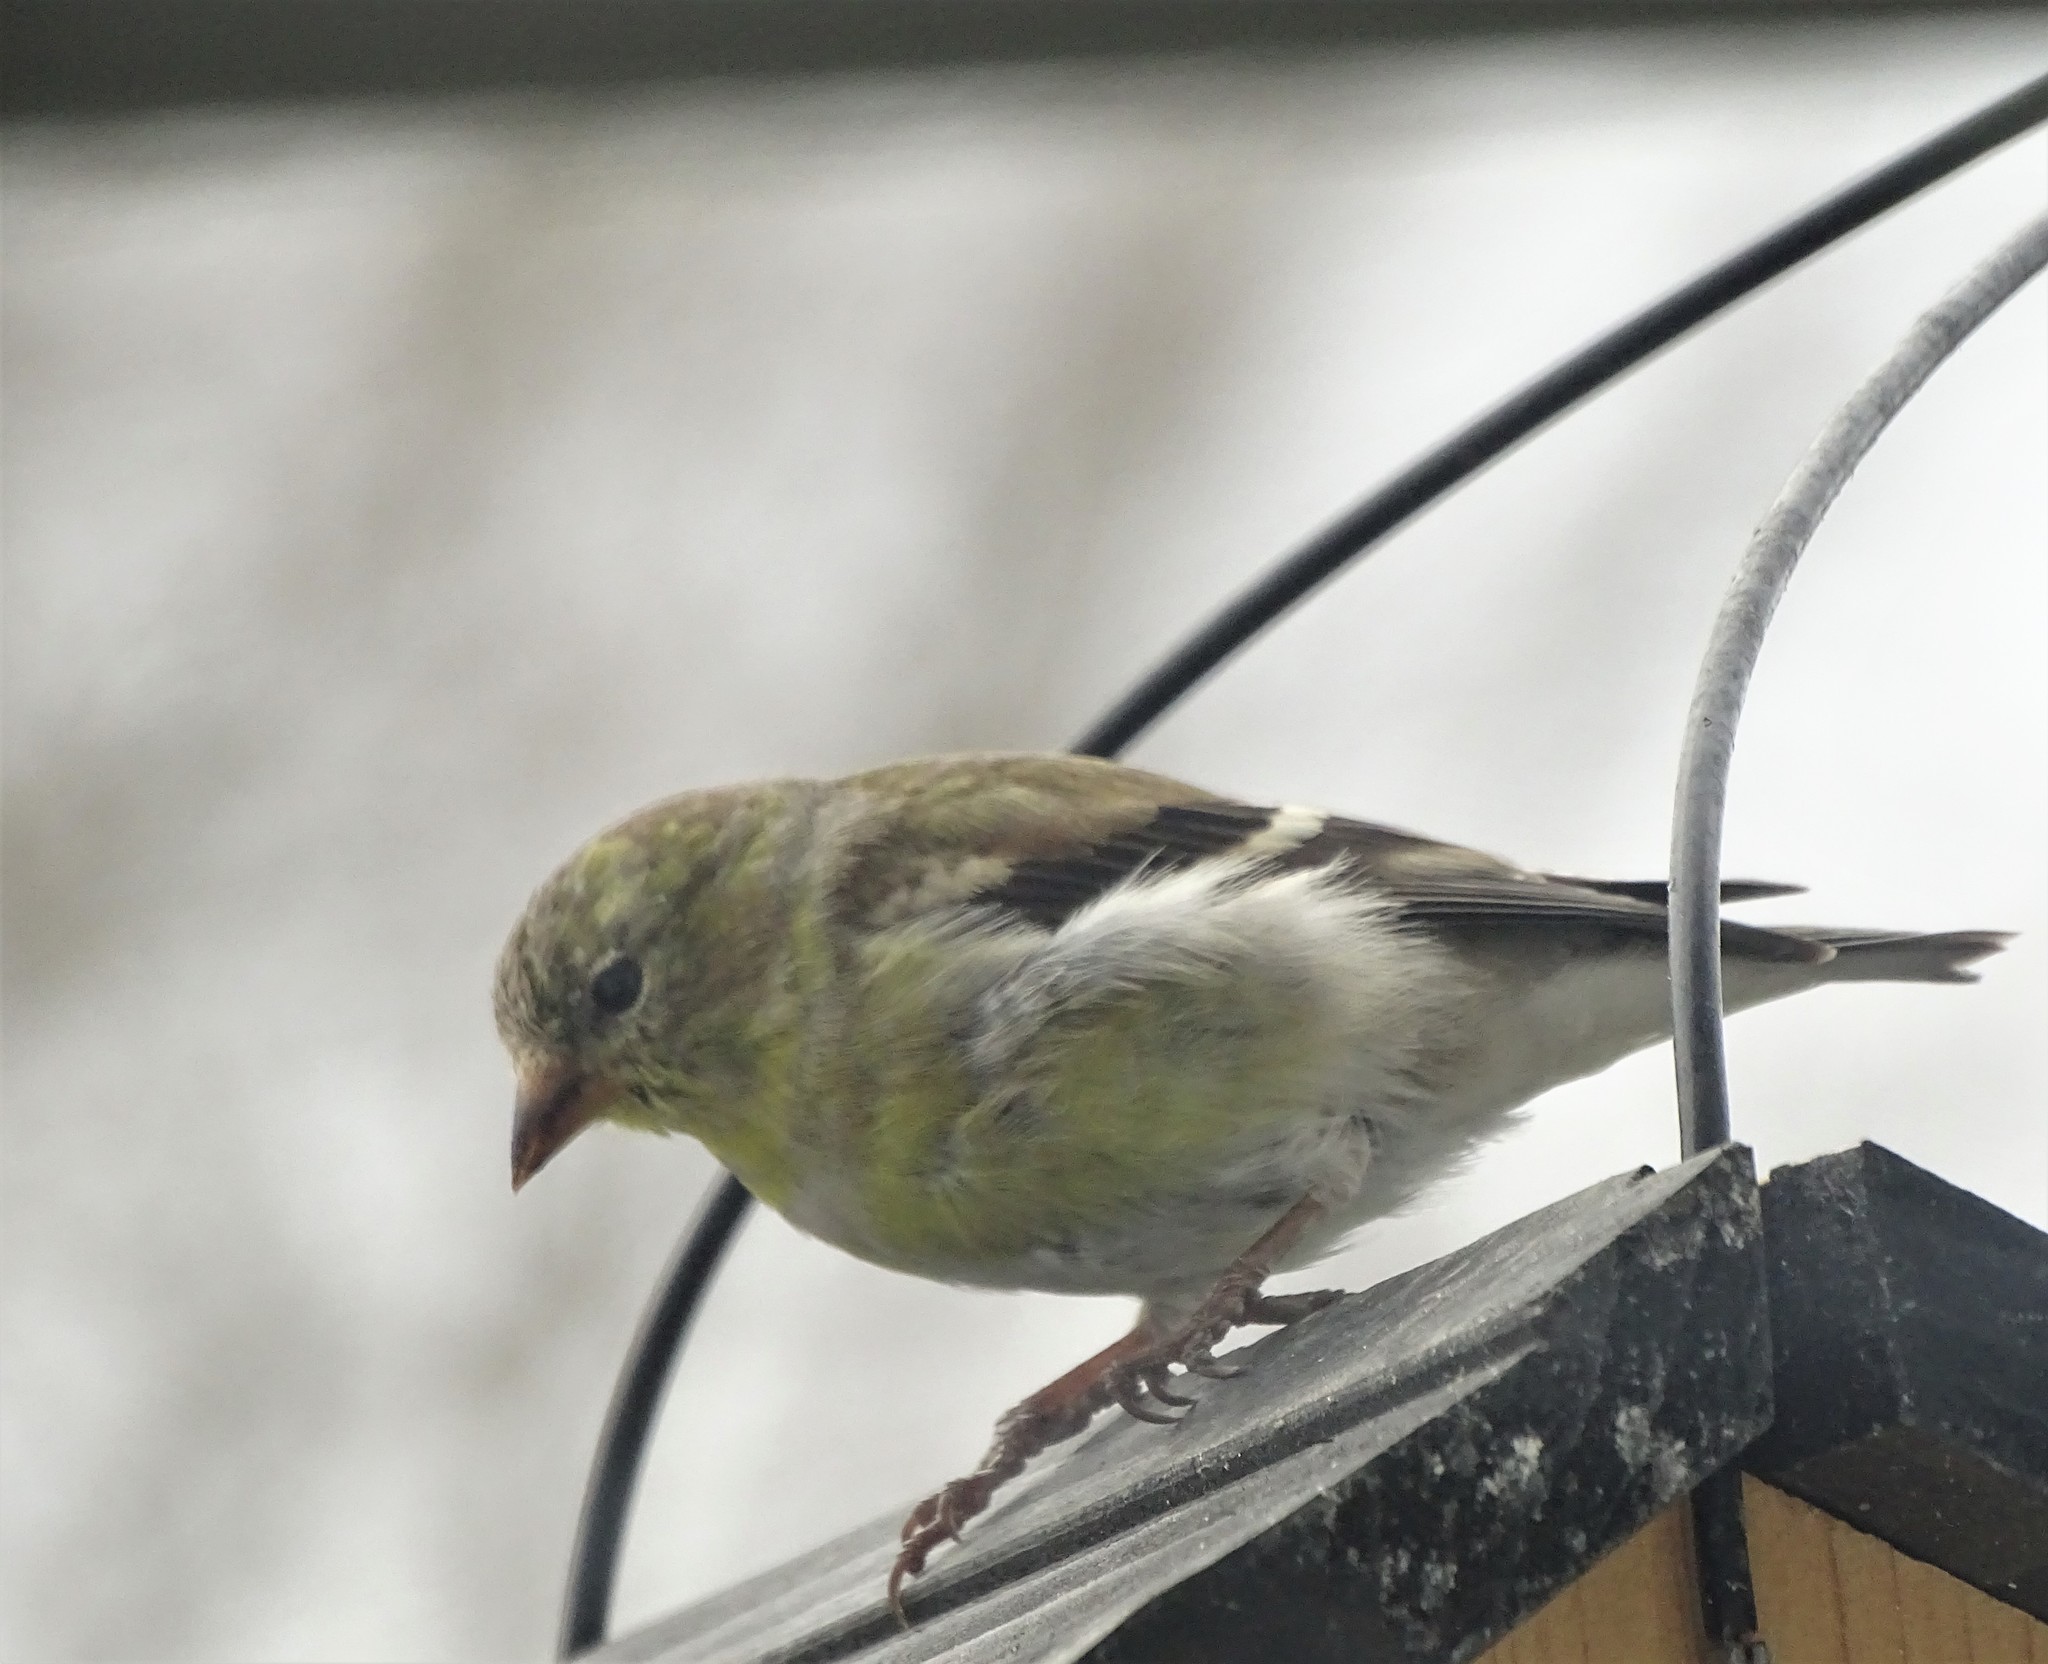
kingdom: Animalia
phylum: Chordata
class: Aves
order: Passeriformes
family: Fringillidae
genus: Spinus
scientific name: Spinus tristis
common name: American goldfinch
